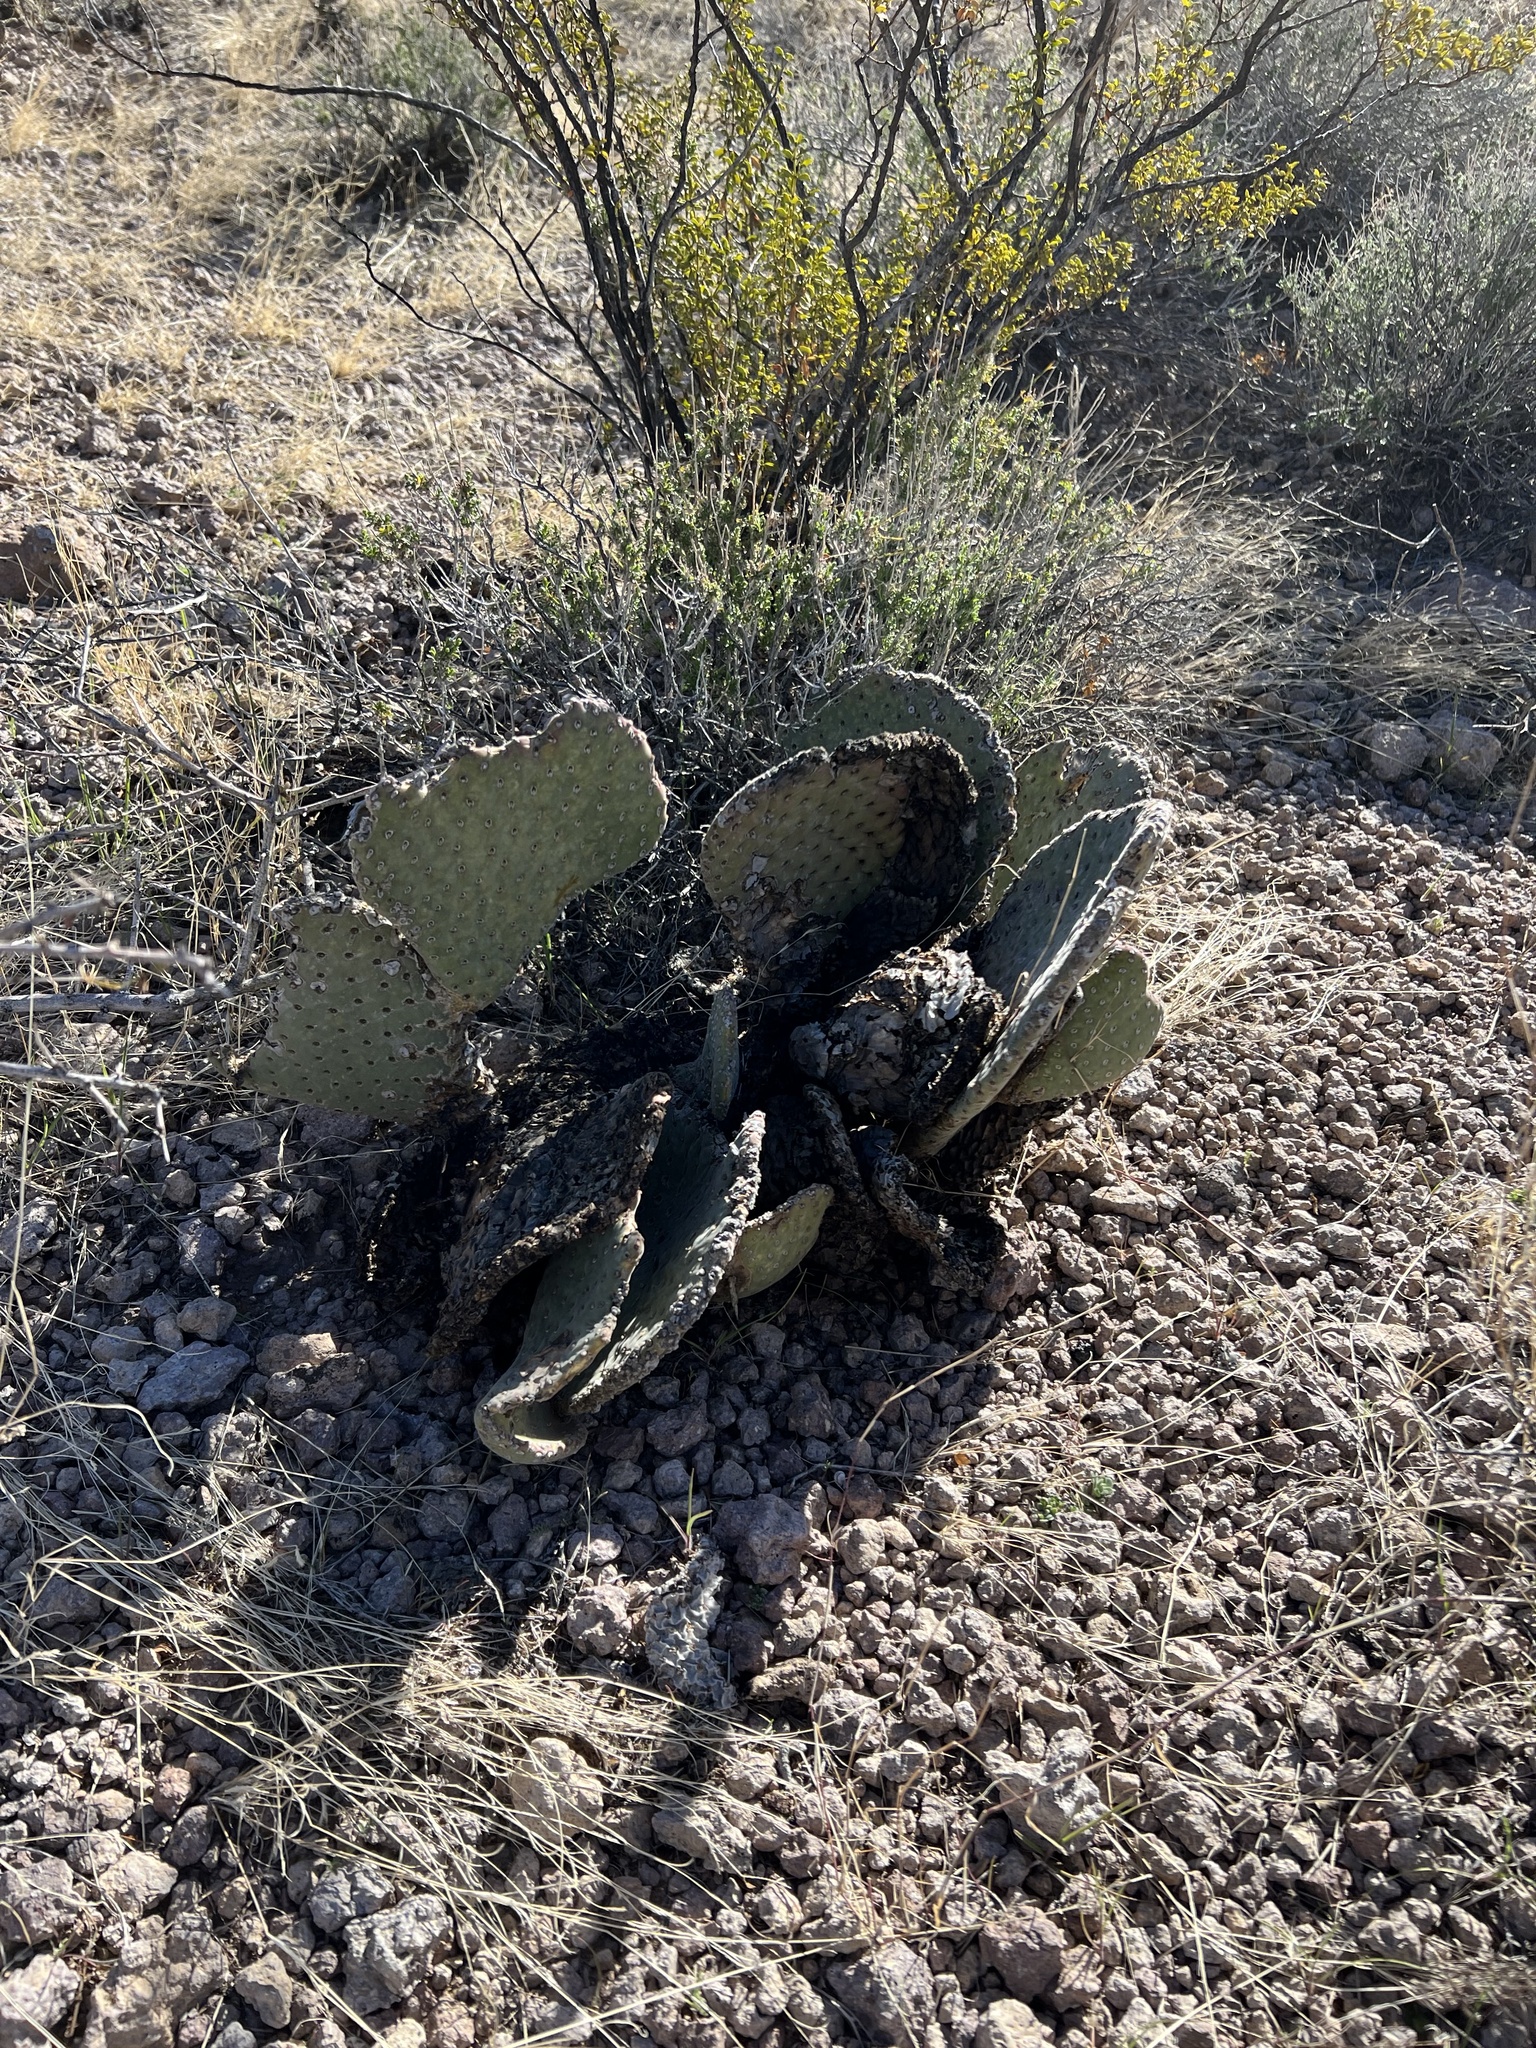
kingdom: Plantae
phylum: Tracheophyta
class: Magnoliopsida
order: Caryophyllales
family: Cactaceae
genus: Opuntia
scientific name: Opuntia basilaris
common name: Beavertail prickly-pear
